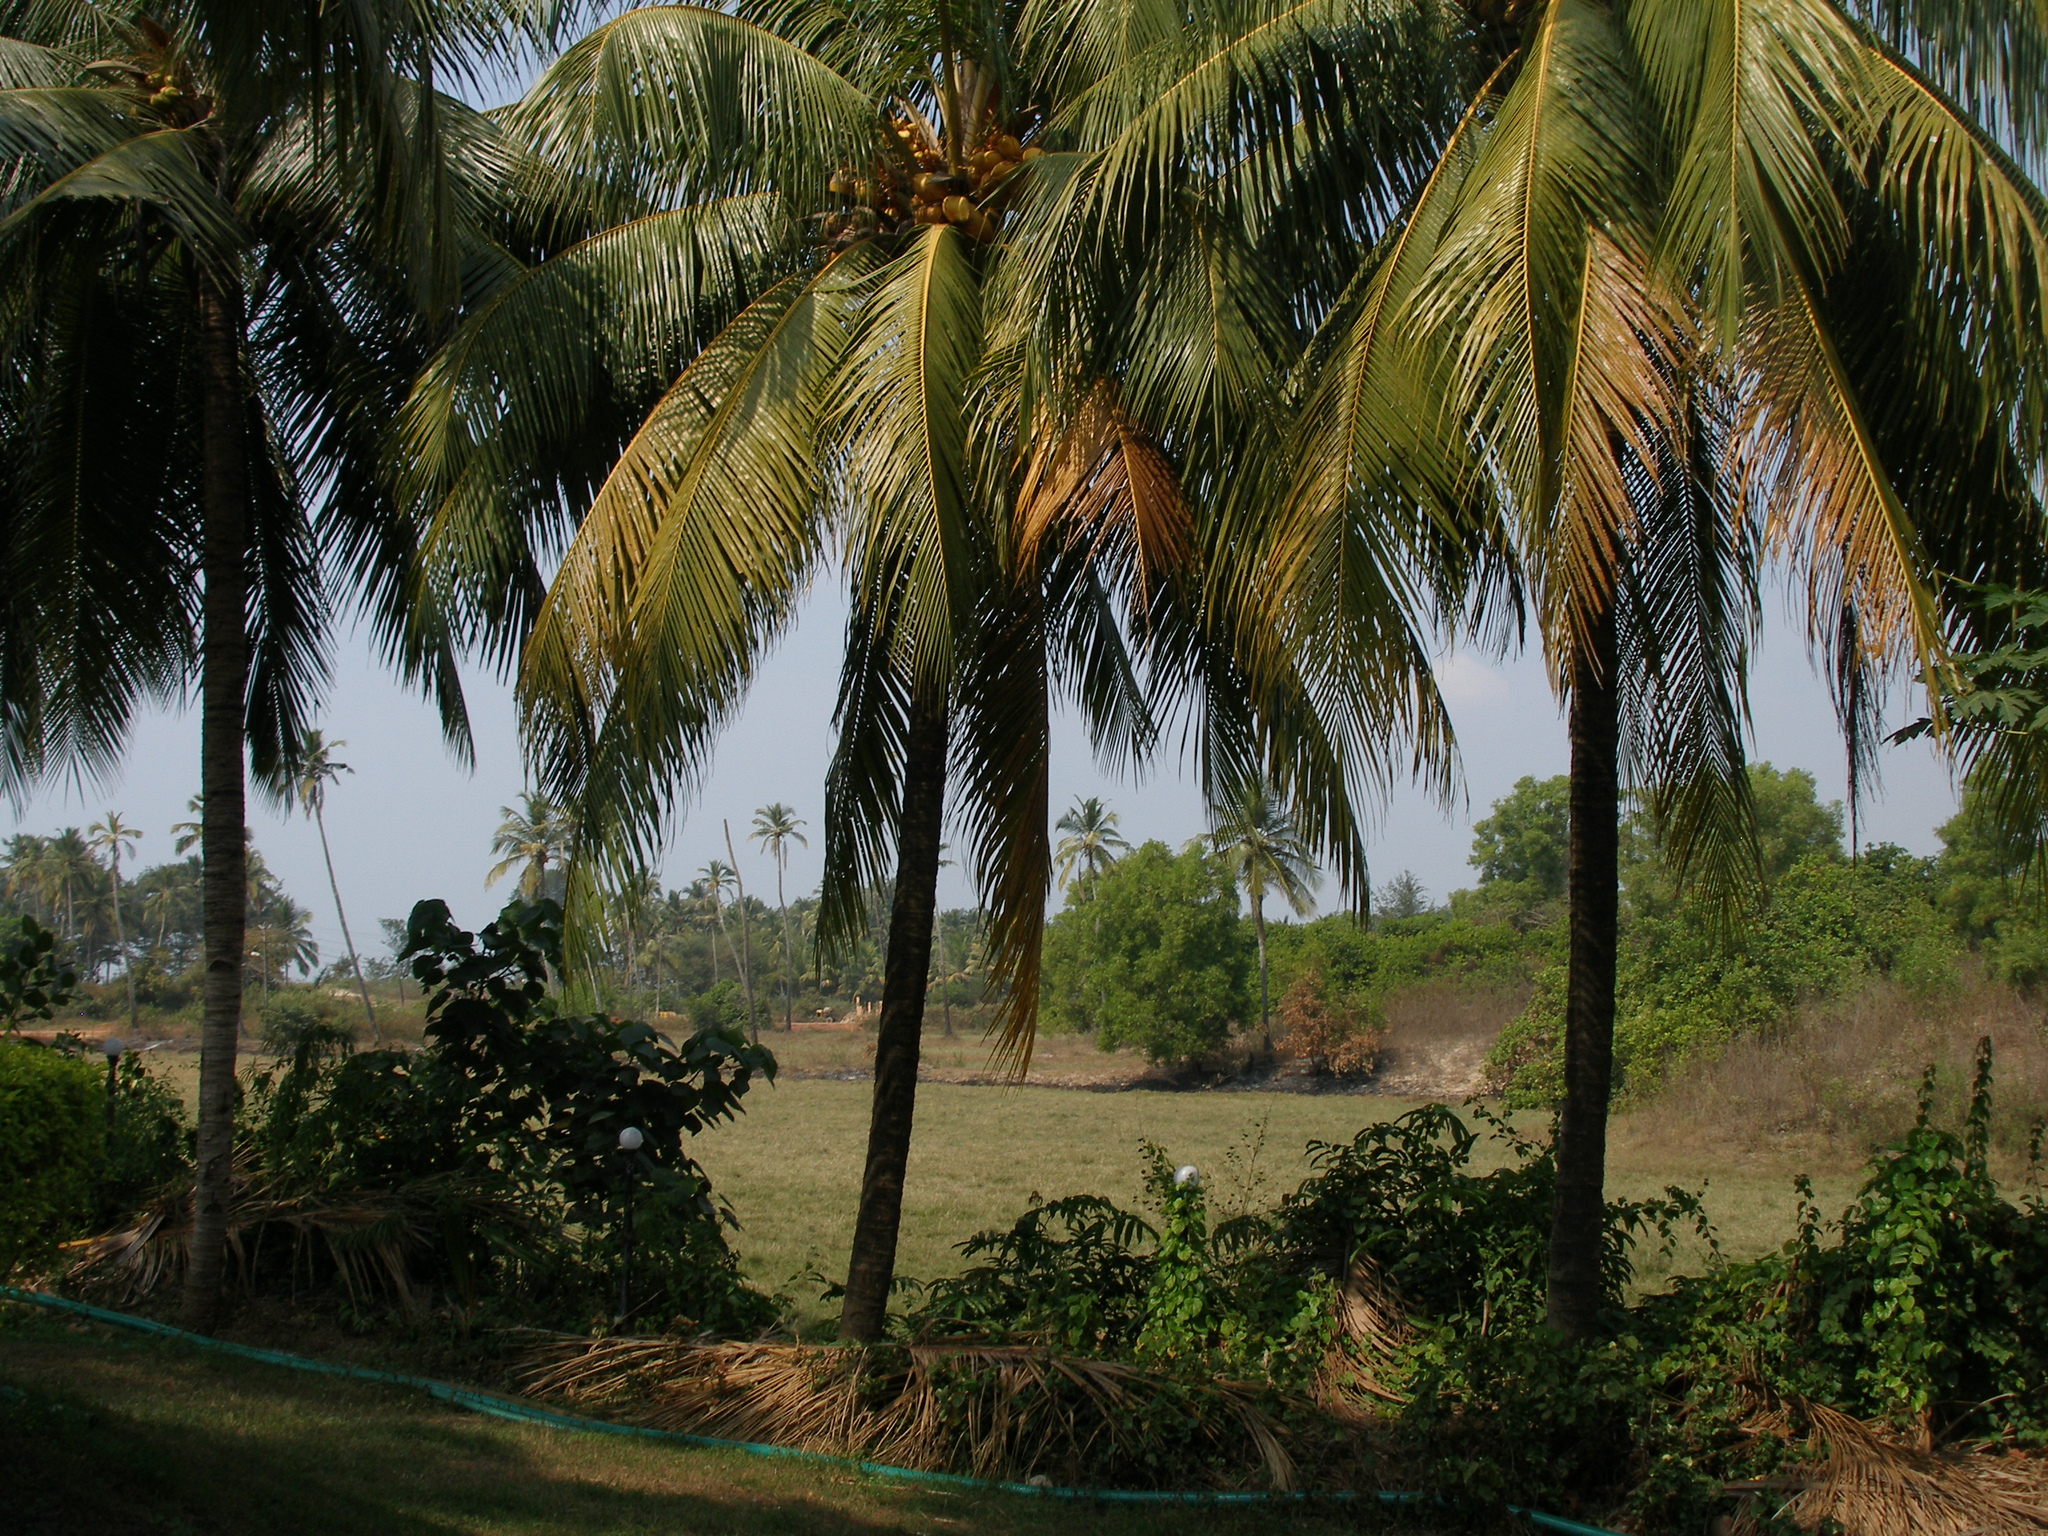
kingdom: Plantae
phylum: Tracheophyta
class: Liliopsida
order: Arecales
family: Arecaceae
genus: Cocos
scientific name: Cocos nucifera
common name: Coconut palm
